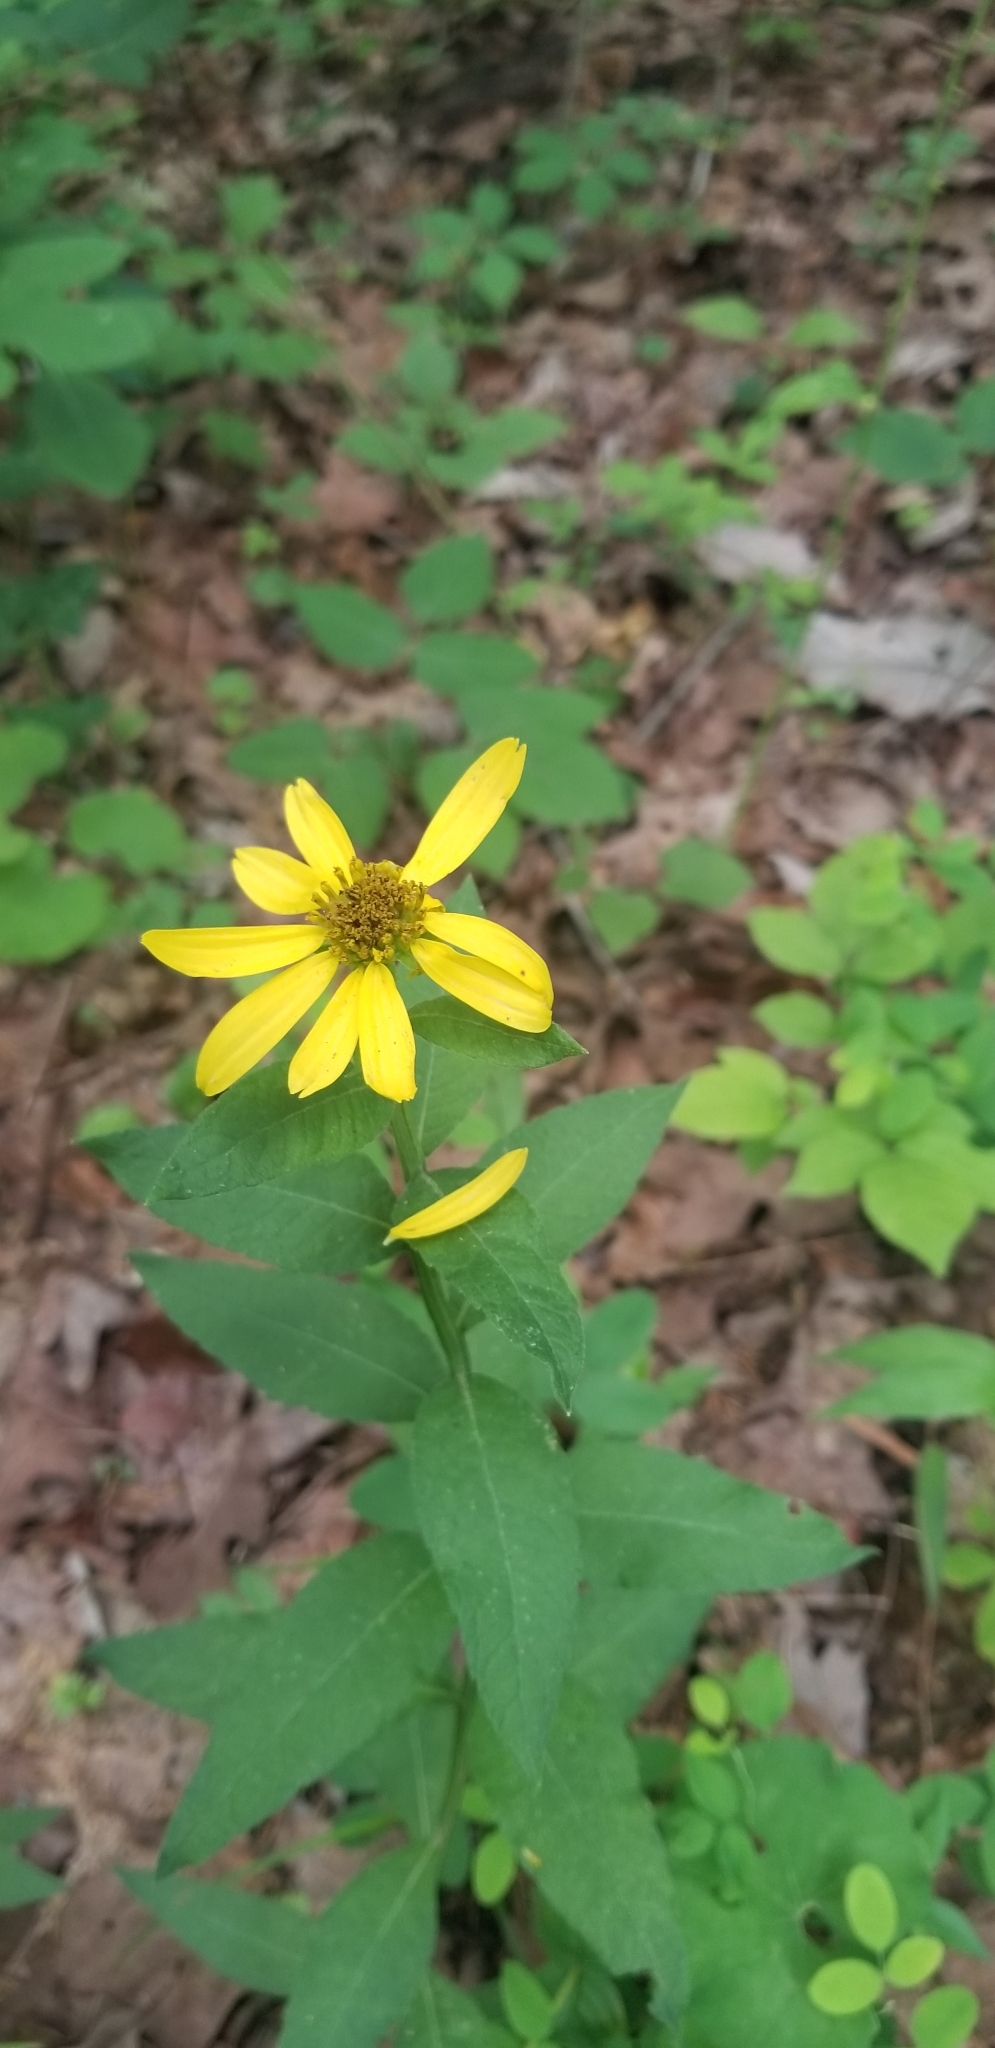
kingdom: Plantae
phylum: Tracheophyta
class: Magnoliopsida
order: Asterales
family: Asteraceae
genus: Verbesina
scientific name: Verbesina helianthoides
